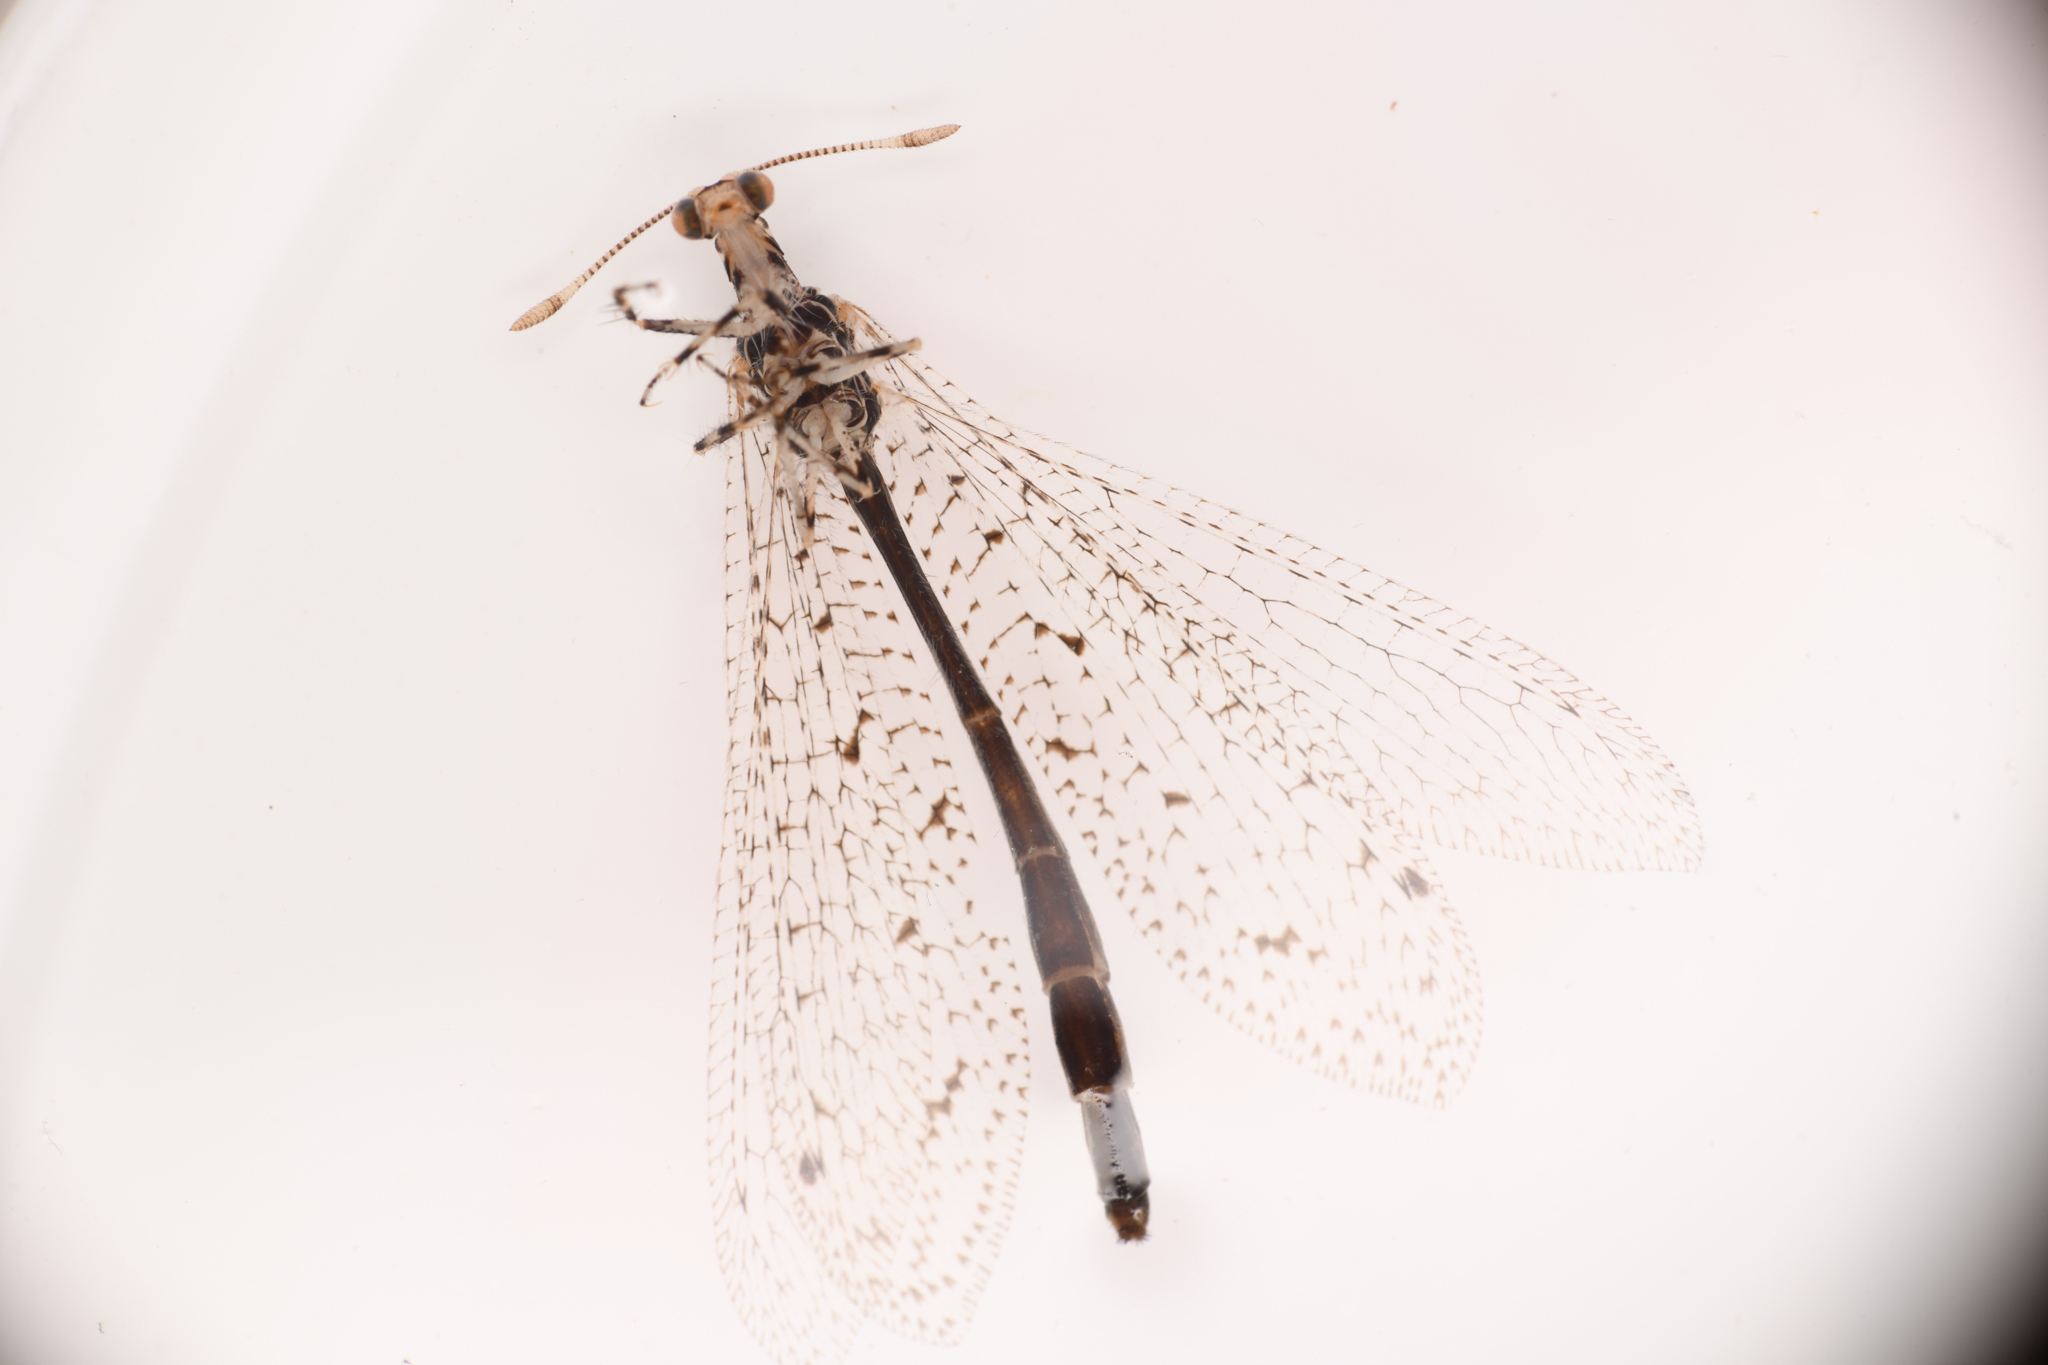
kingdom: Animalia
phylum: Arthropoda
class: Insecta
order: Neuroptera
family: Myrmeleontidae
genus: Chaetoleon
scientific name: Chaetoleon pusillus
